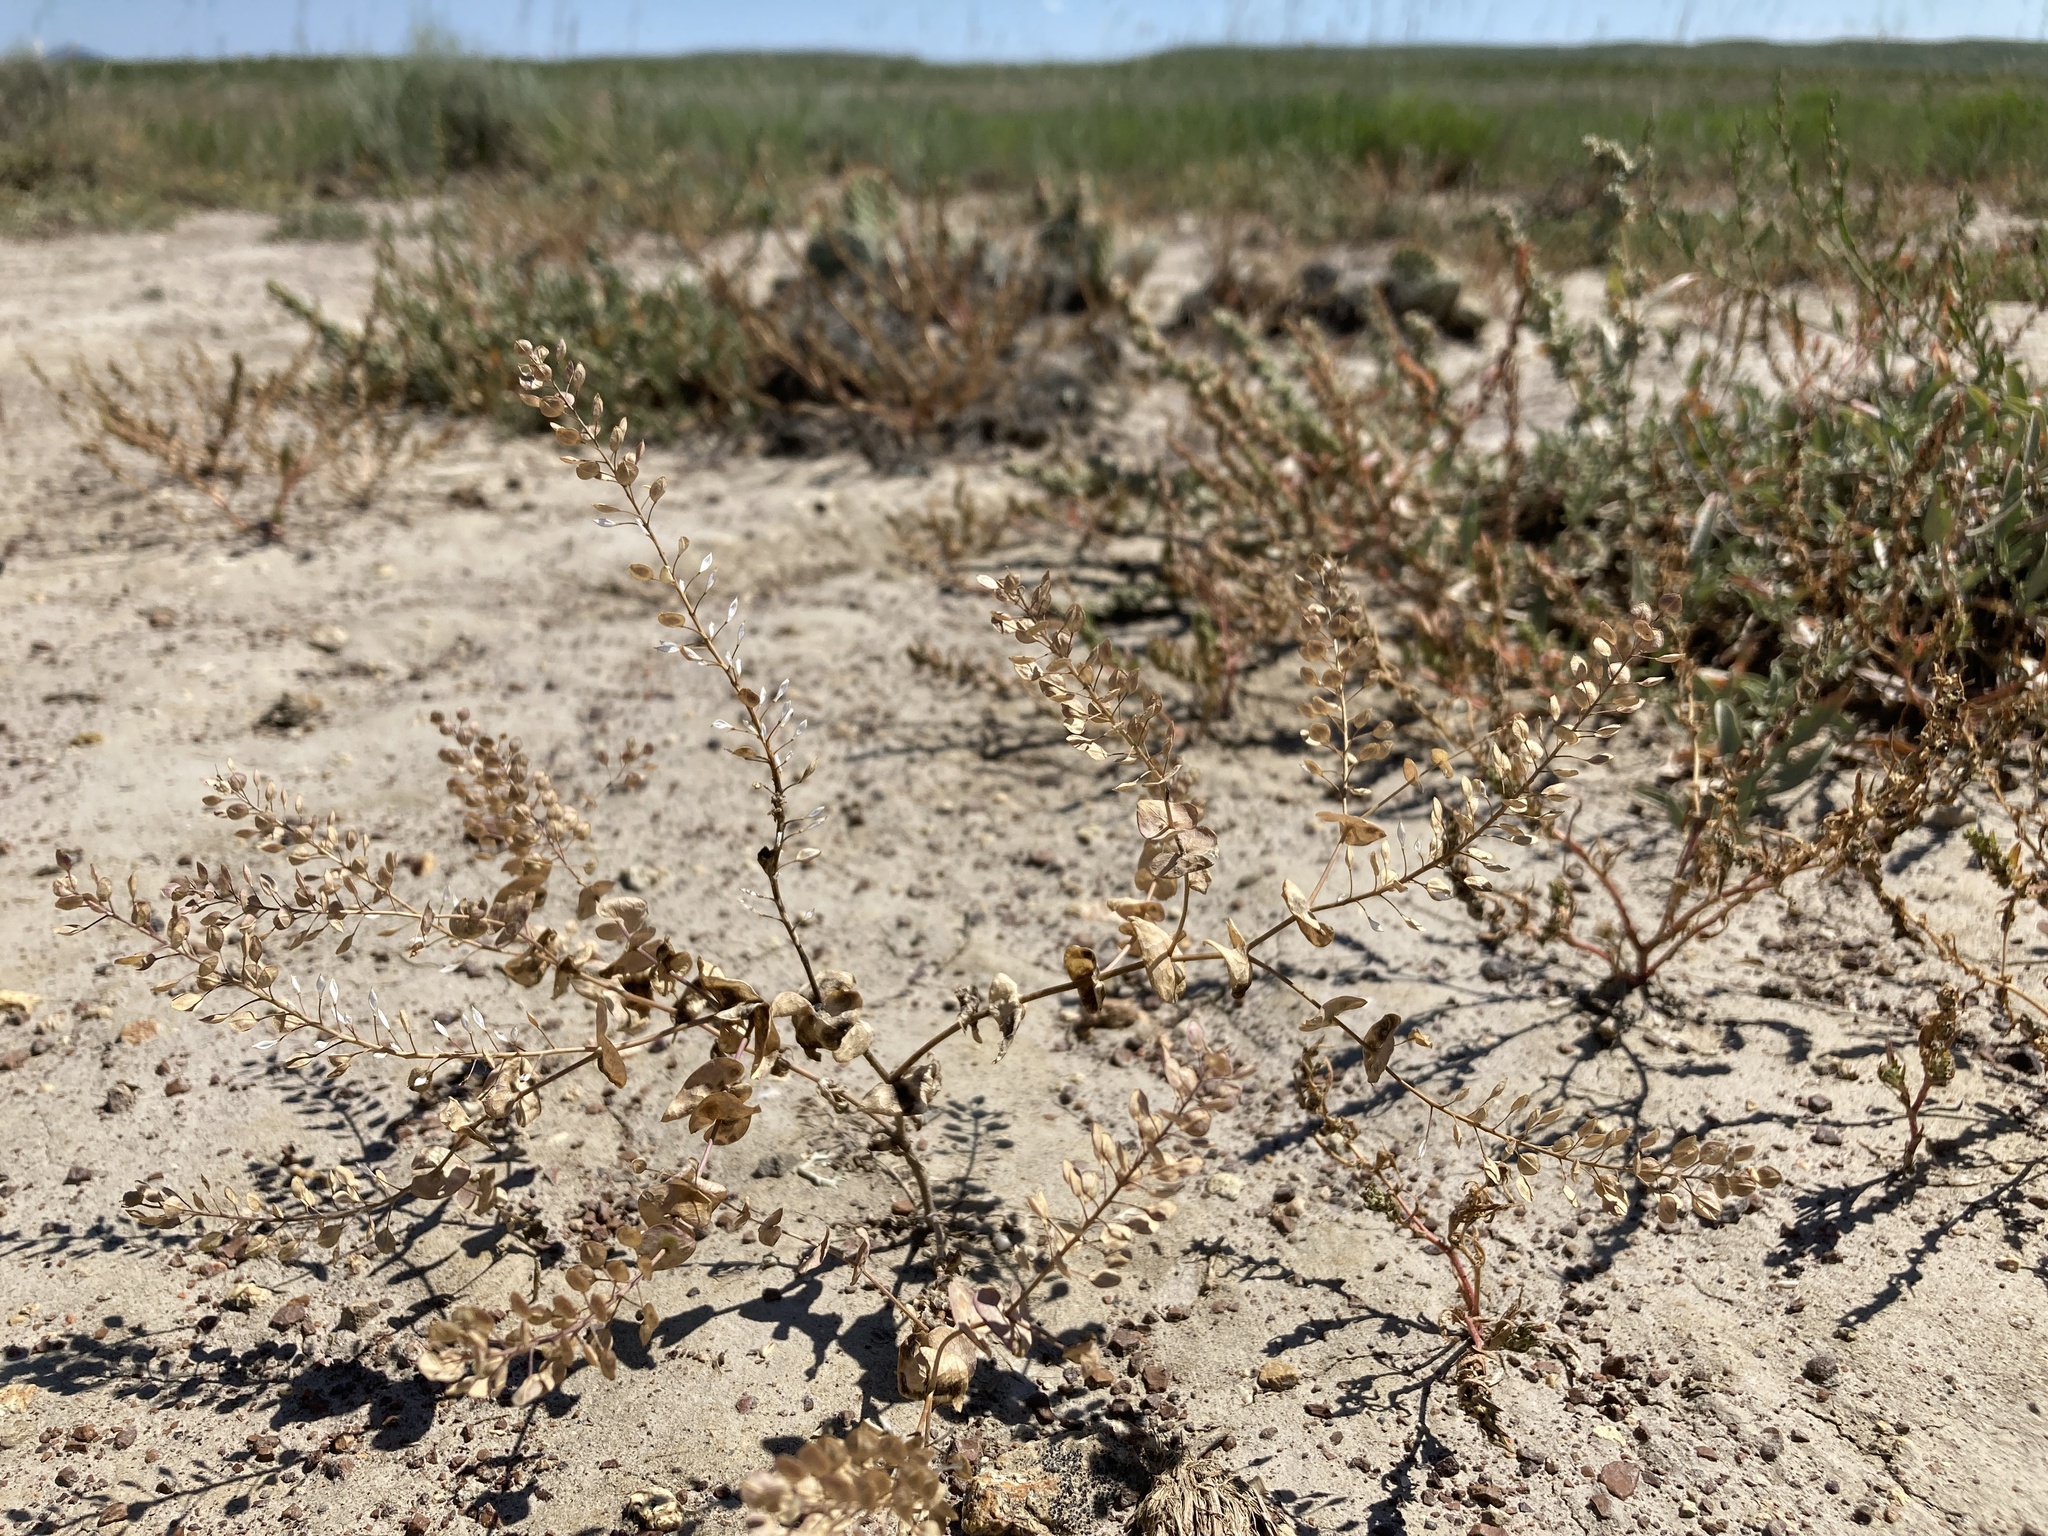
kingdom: Plantae
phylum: Tracheophyta
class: Magnoliopsida
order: Brassicales
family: Brassicaceae
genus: Lepidium
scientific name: Lepidium perfoliatum
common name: Perfoliate pepperwort
